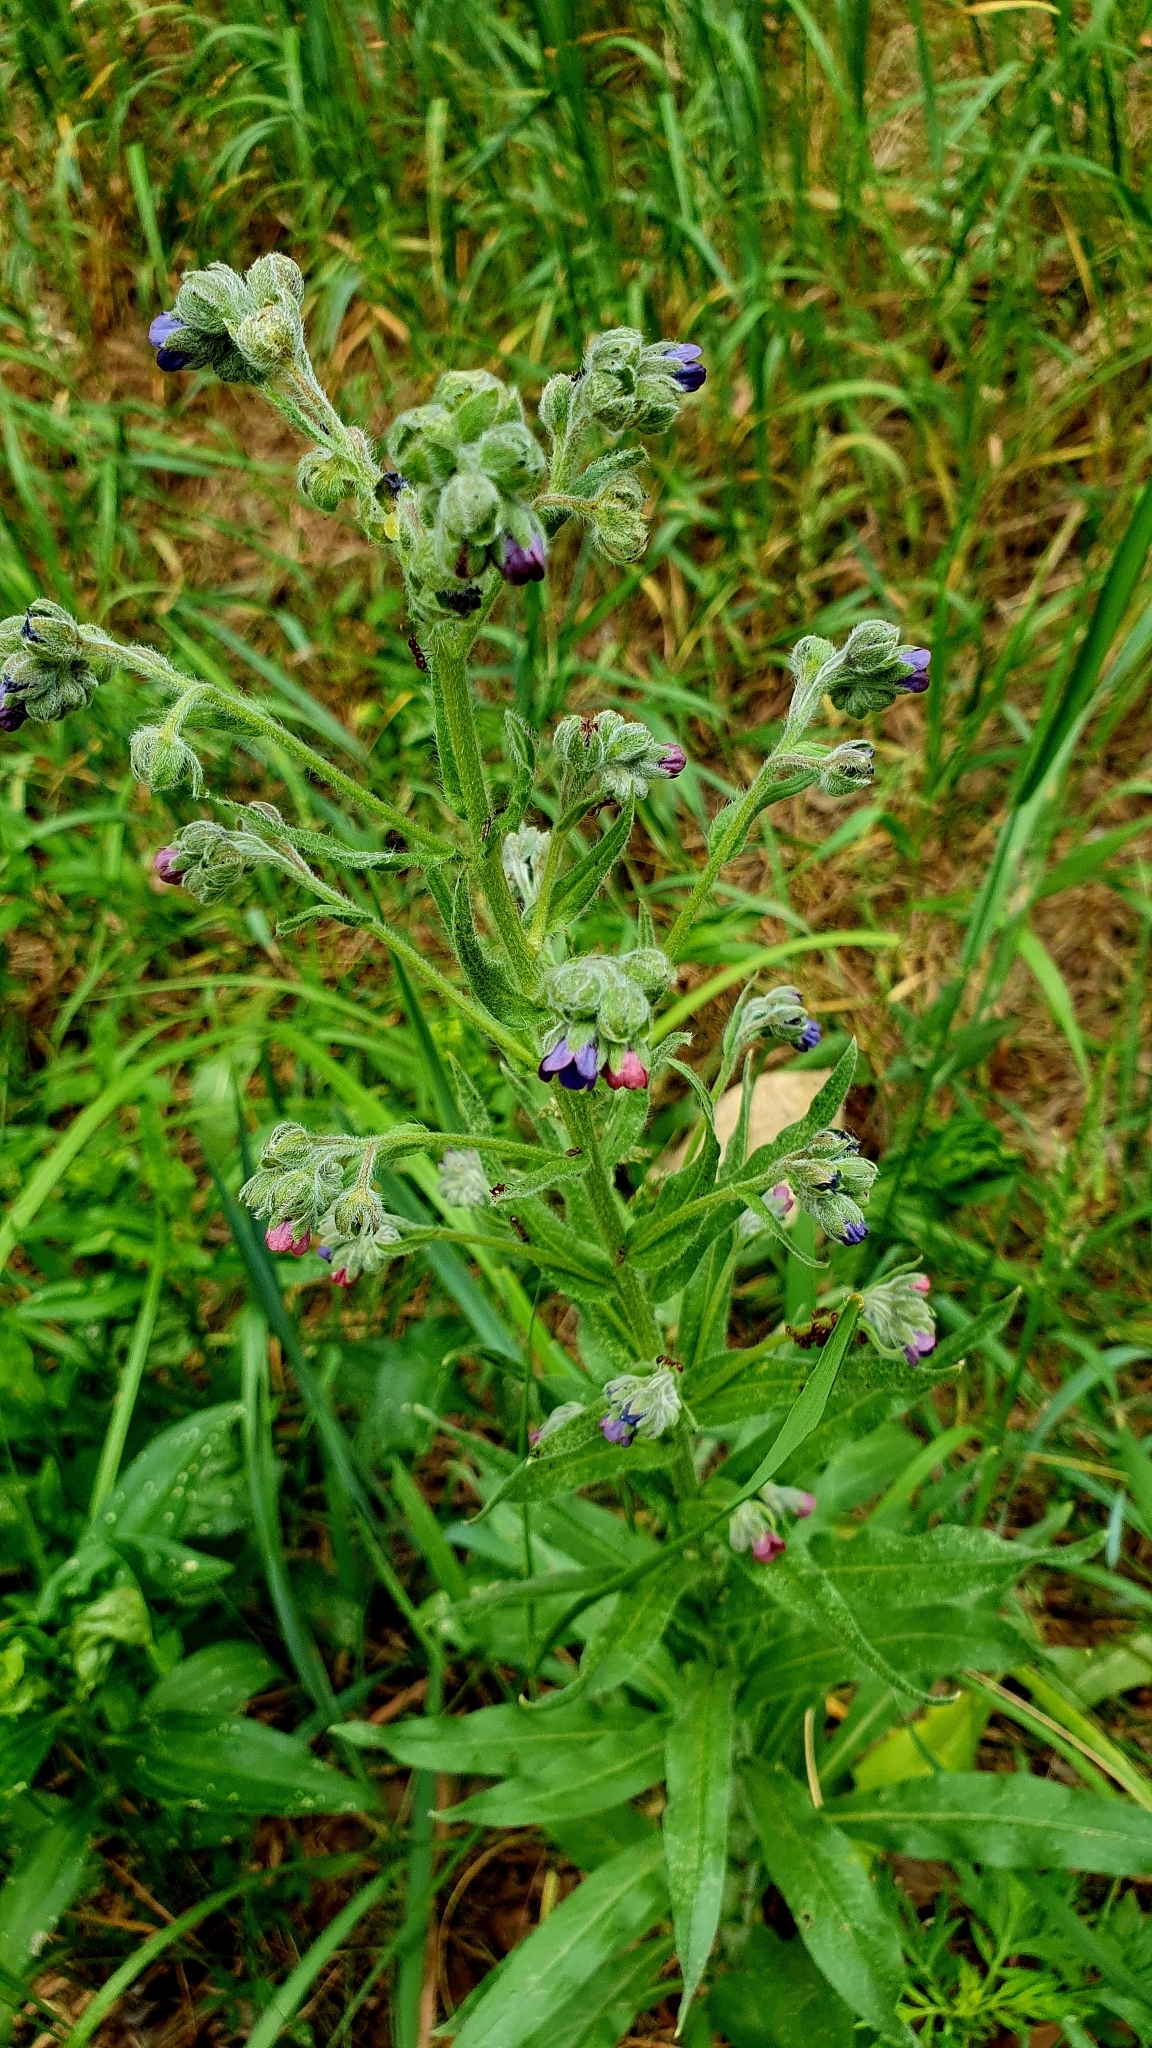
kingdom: Plantae
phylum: Tracheophyta
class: Magnoliopsida
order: Boraginales
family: Boraginaceae
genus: Cynoglossum
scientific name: Cynoglossum officinale
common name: Hound's-tongue
